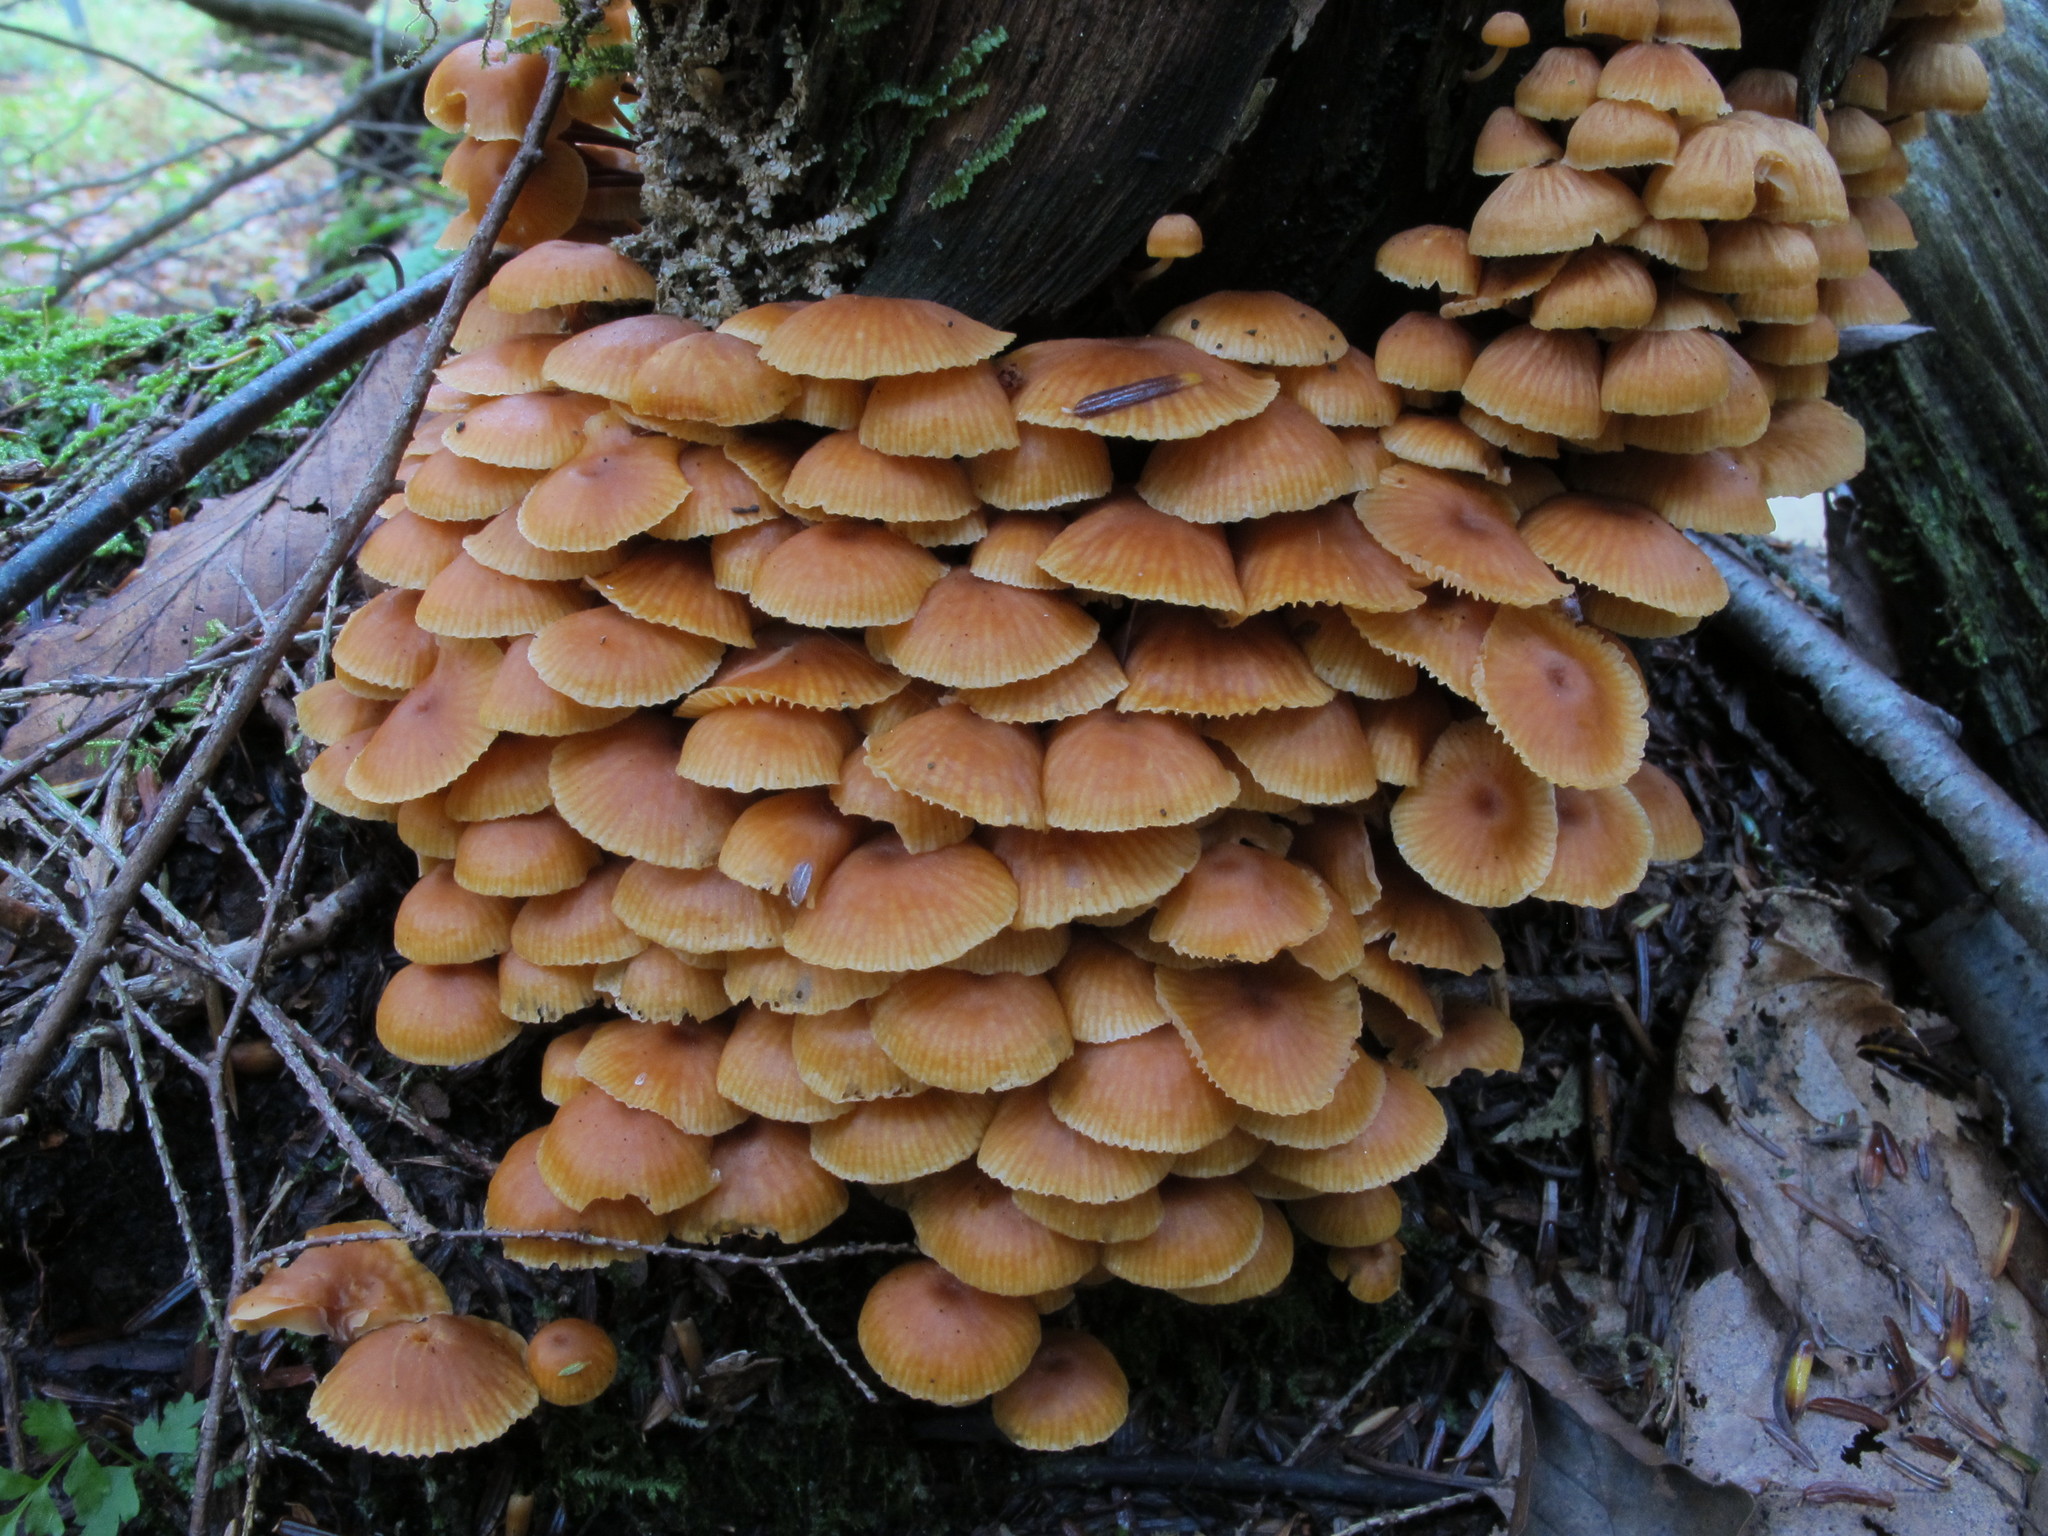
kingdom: Fungi
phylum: Basidiomycota
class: Agaricomycetes
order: Agaricales
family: Mycenaceae
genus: Xeromphalina
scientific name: Xeromphalina campanella
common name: Pinewood gingertail
